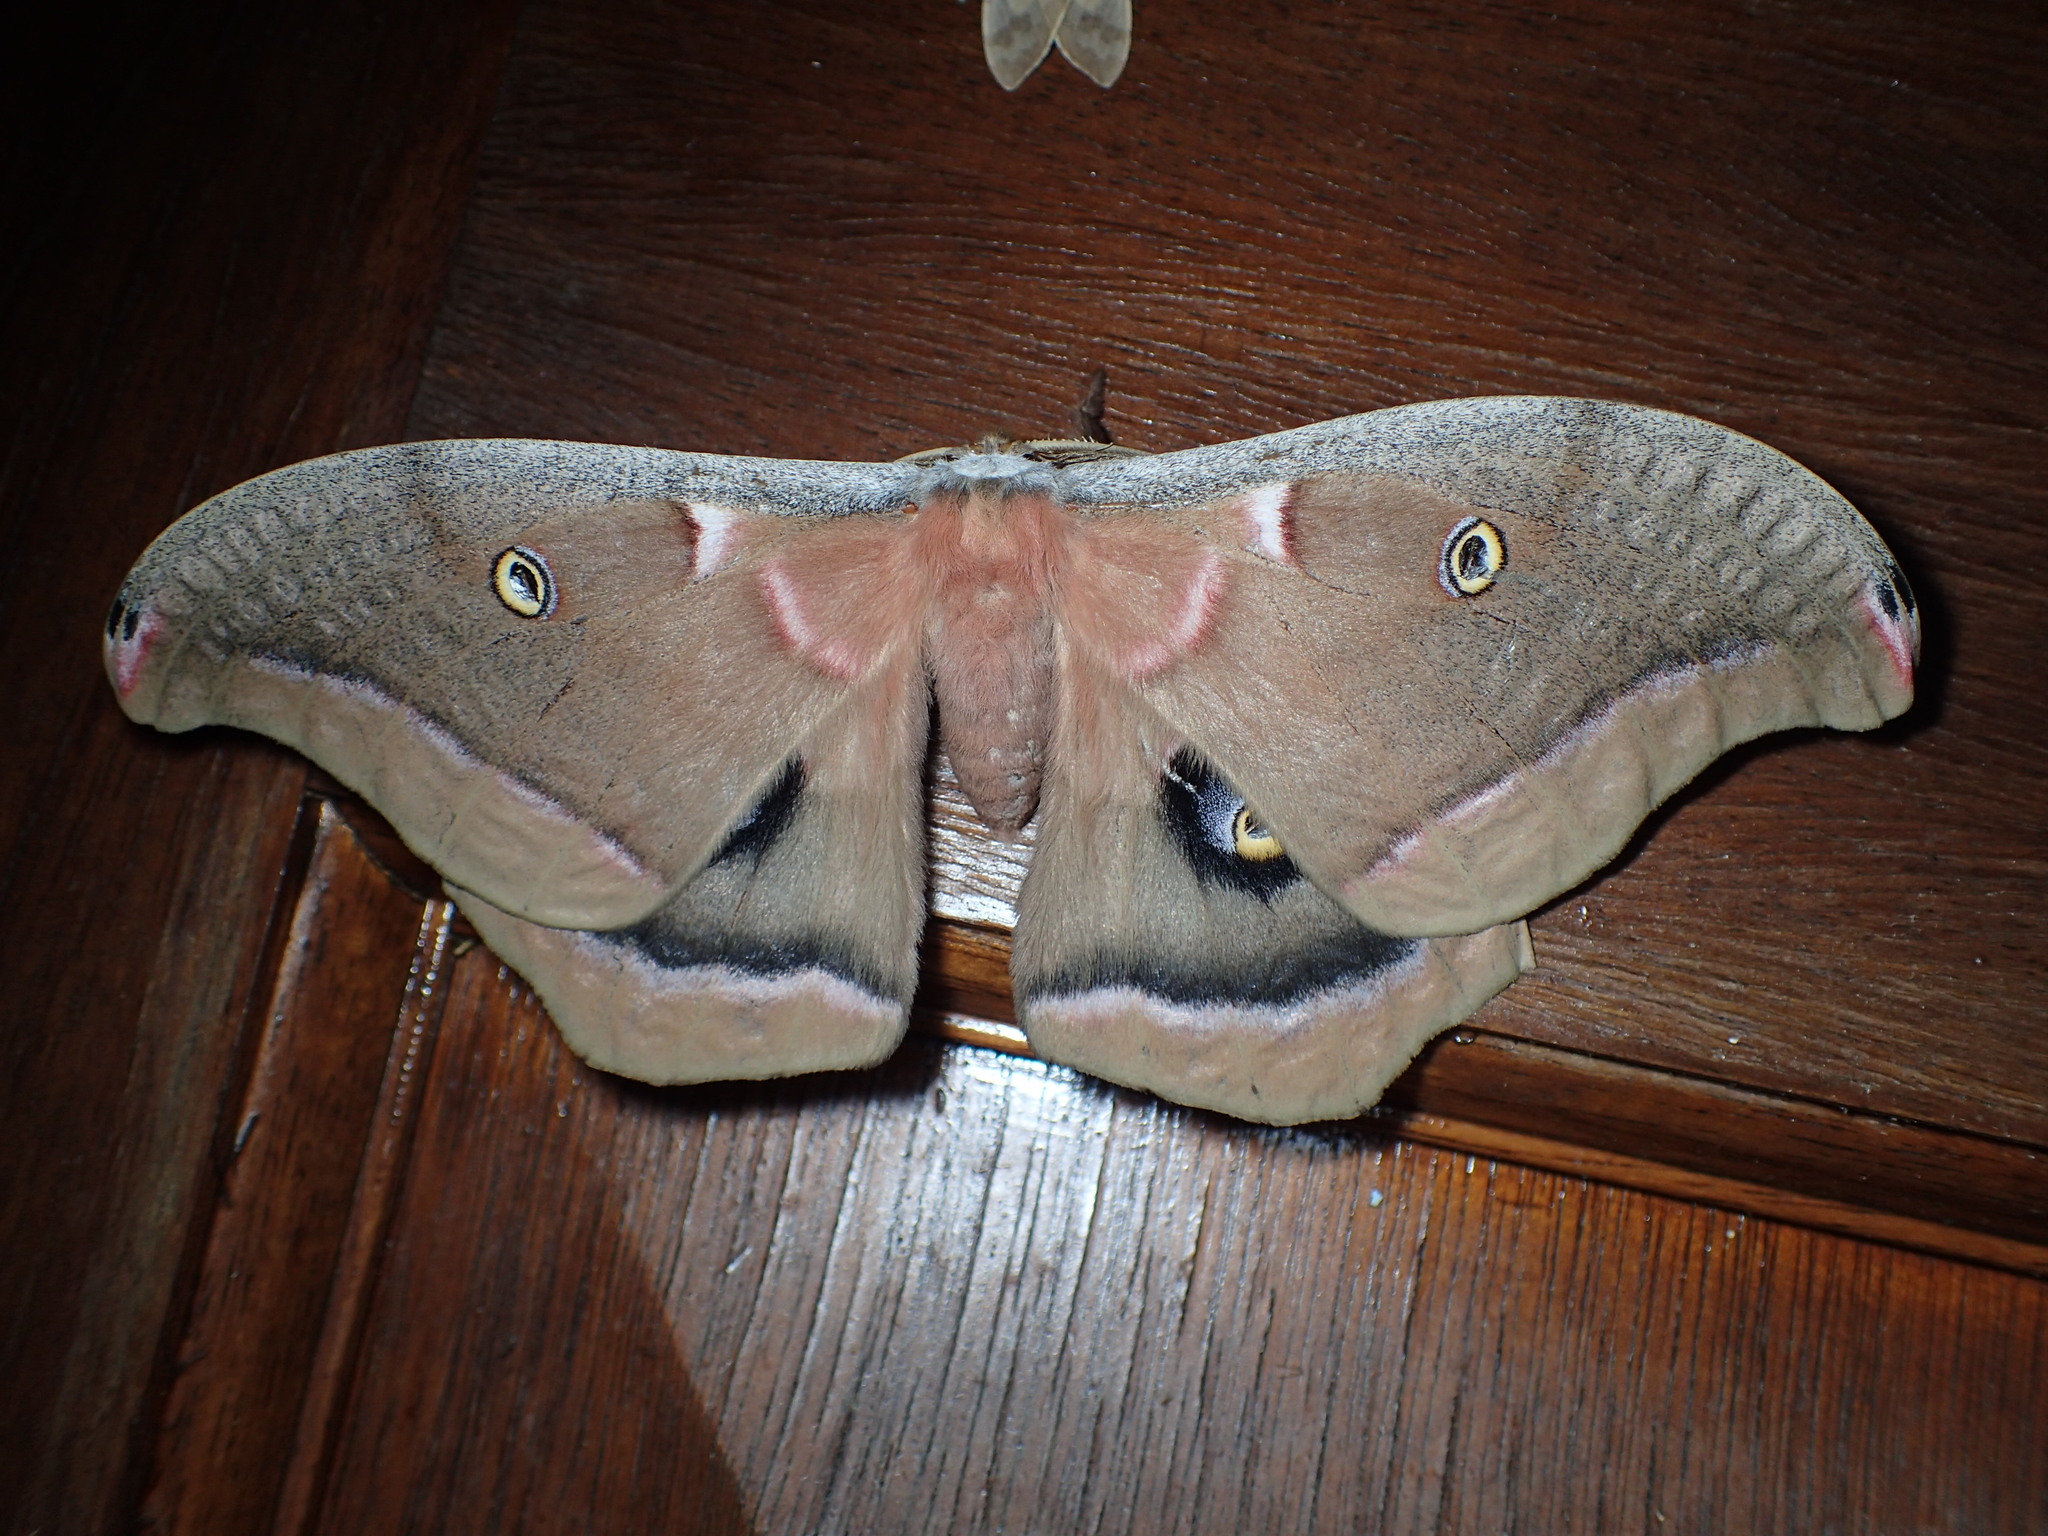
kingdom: Animalia
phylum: Arthropoda
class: Insecta
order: Lepidoptera
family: Saturniidae
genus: Antheraea
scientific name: Antheraea polyphemus
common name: Polyphemus moth
